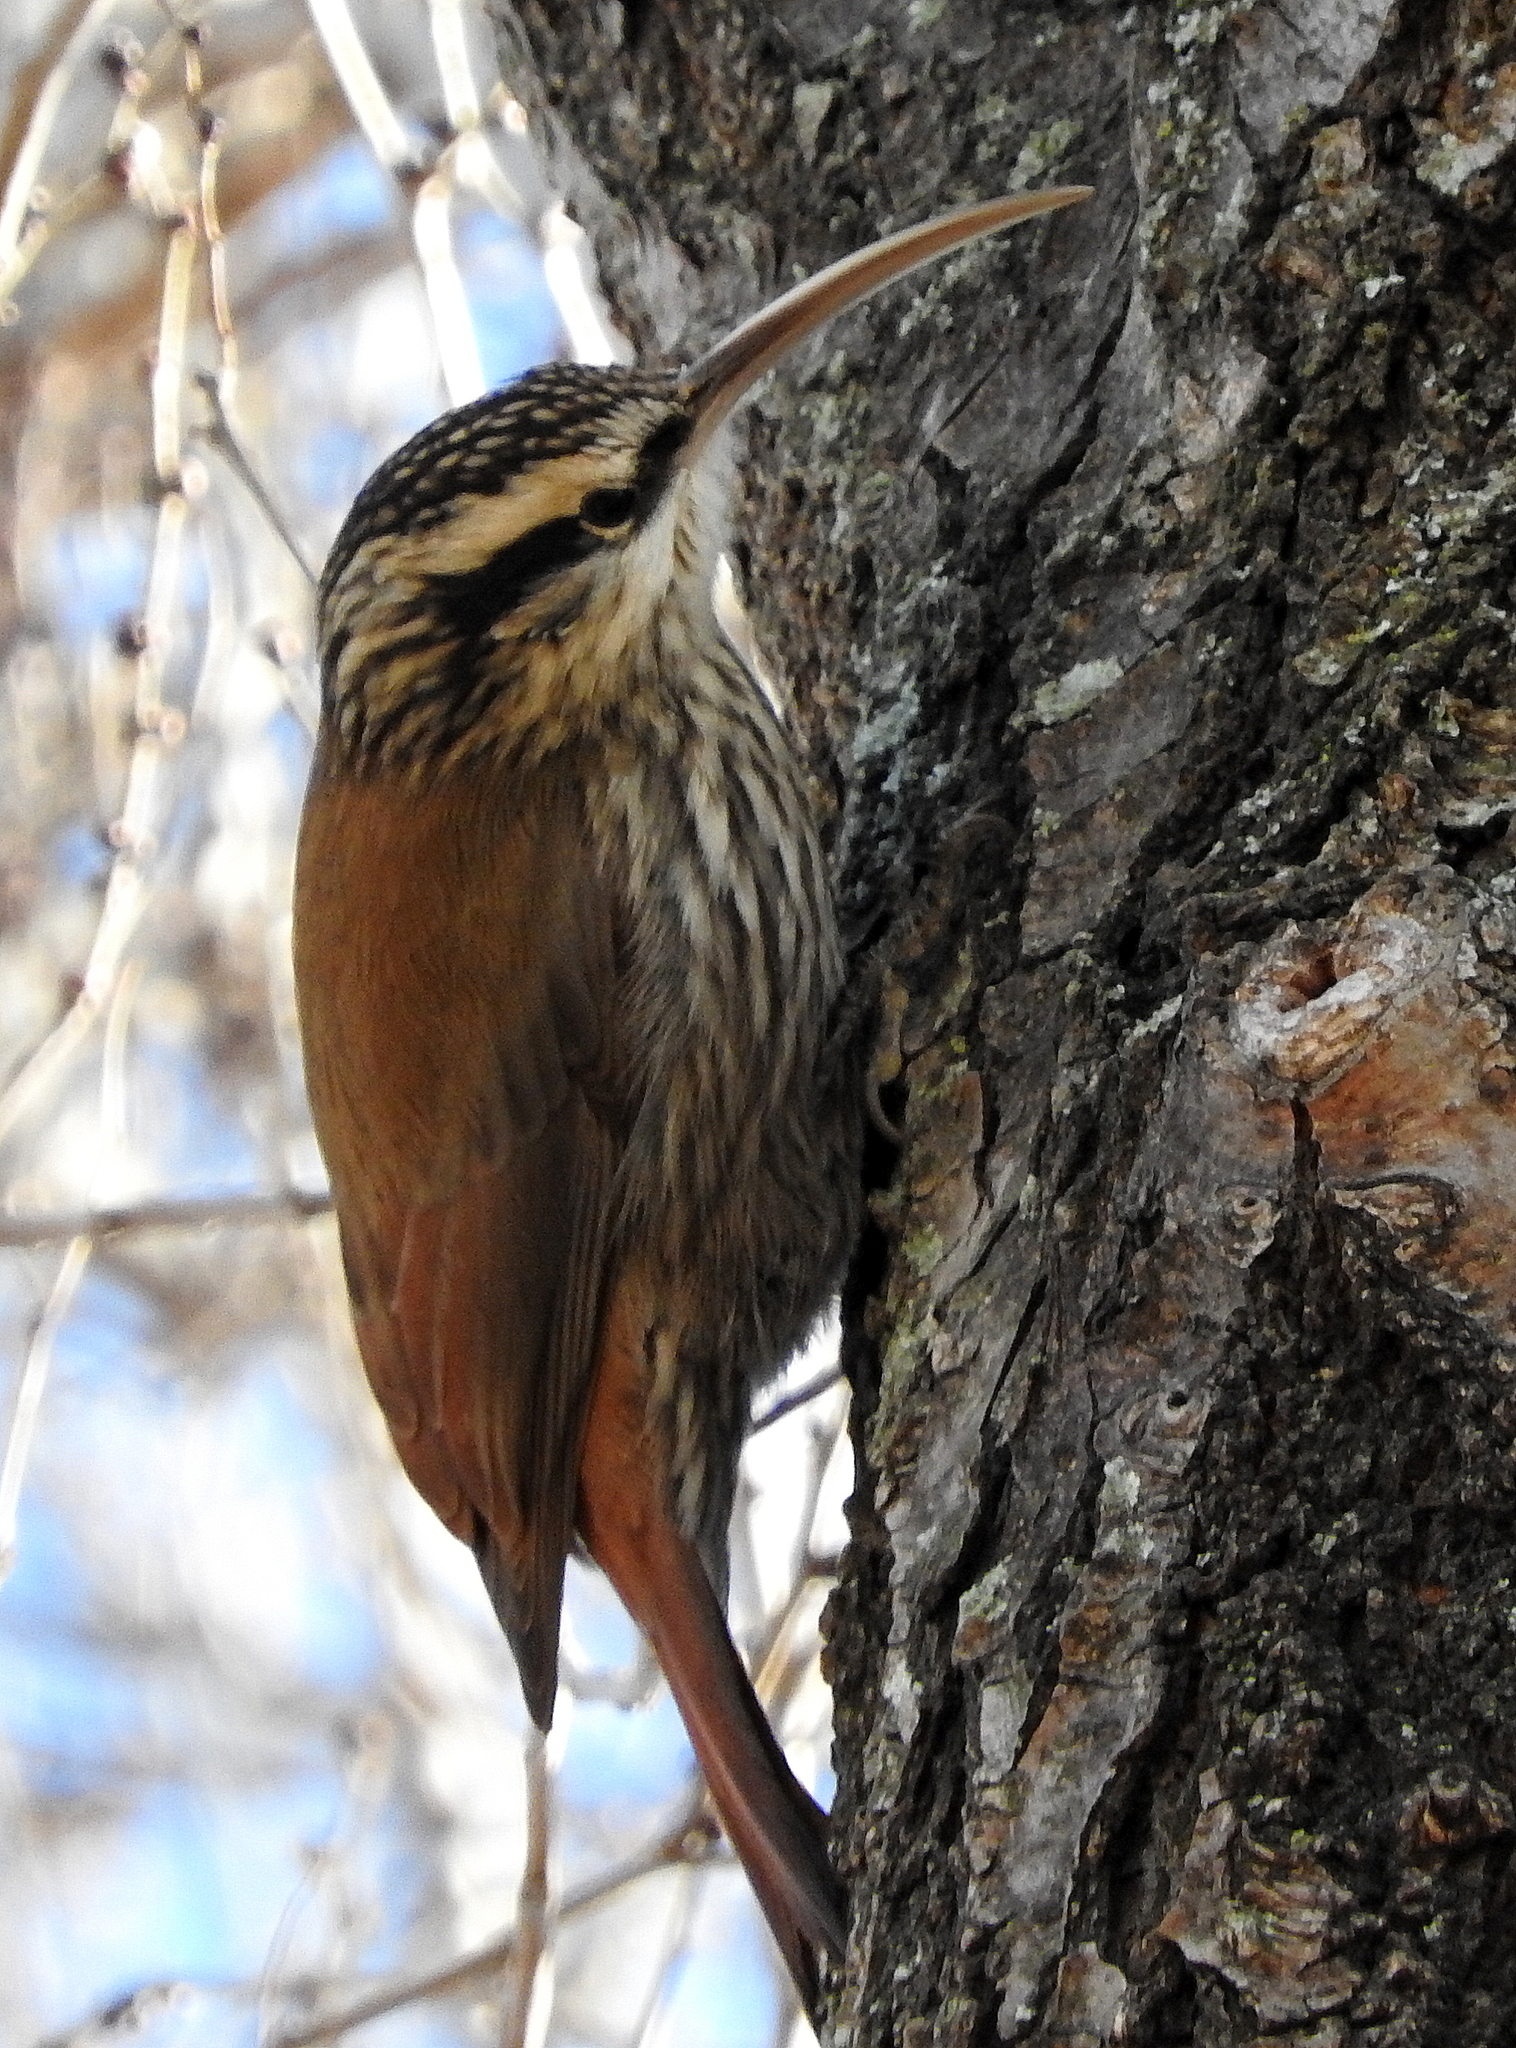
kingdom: Animalia
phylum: Chordata
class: Aves
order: Passeriformes
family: Furnariidae
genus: Lepidocolaptes
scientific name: Lepidocolaptes angustirostris
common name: Narrow-billed woodcreeper
